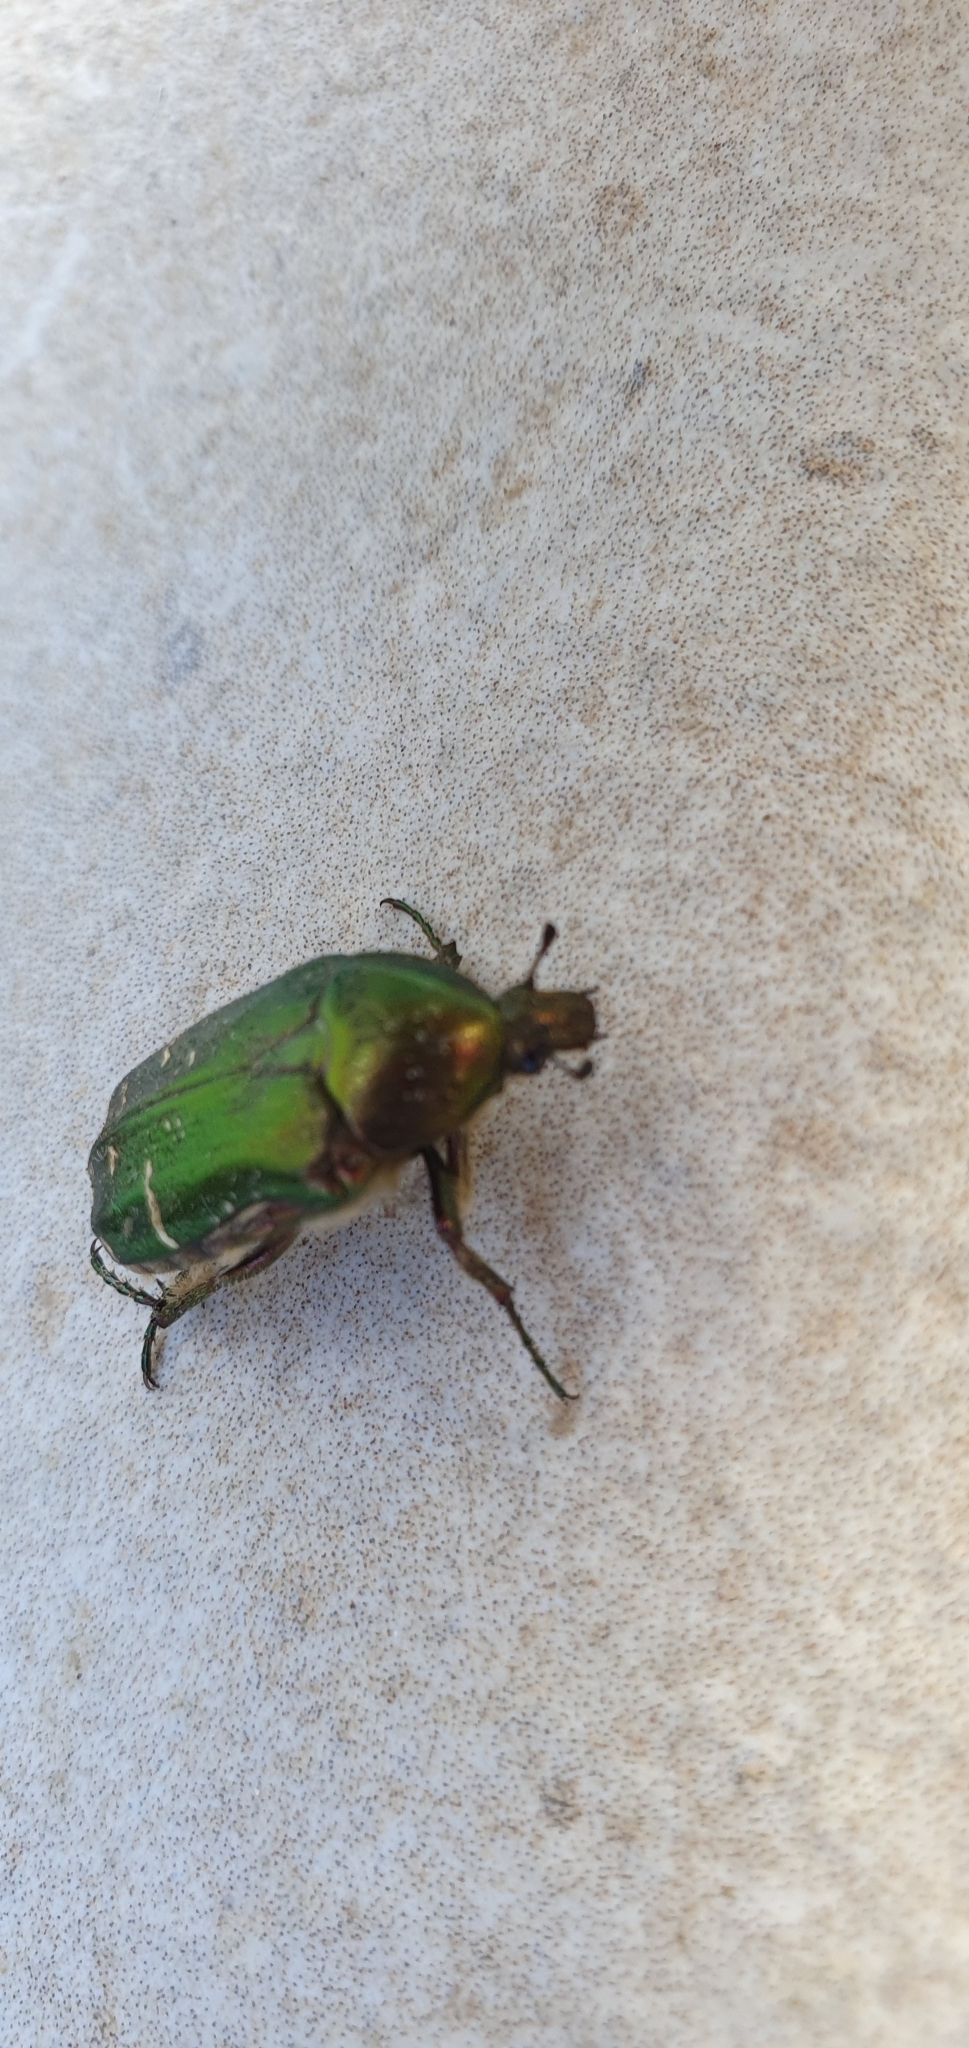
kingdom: Animalia
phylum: Arthropoda
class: Insecta
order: Coleoptera
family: Scarabaeidae
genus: Cetonia
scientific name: Cetonia aurata
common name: Rose chafer
